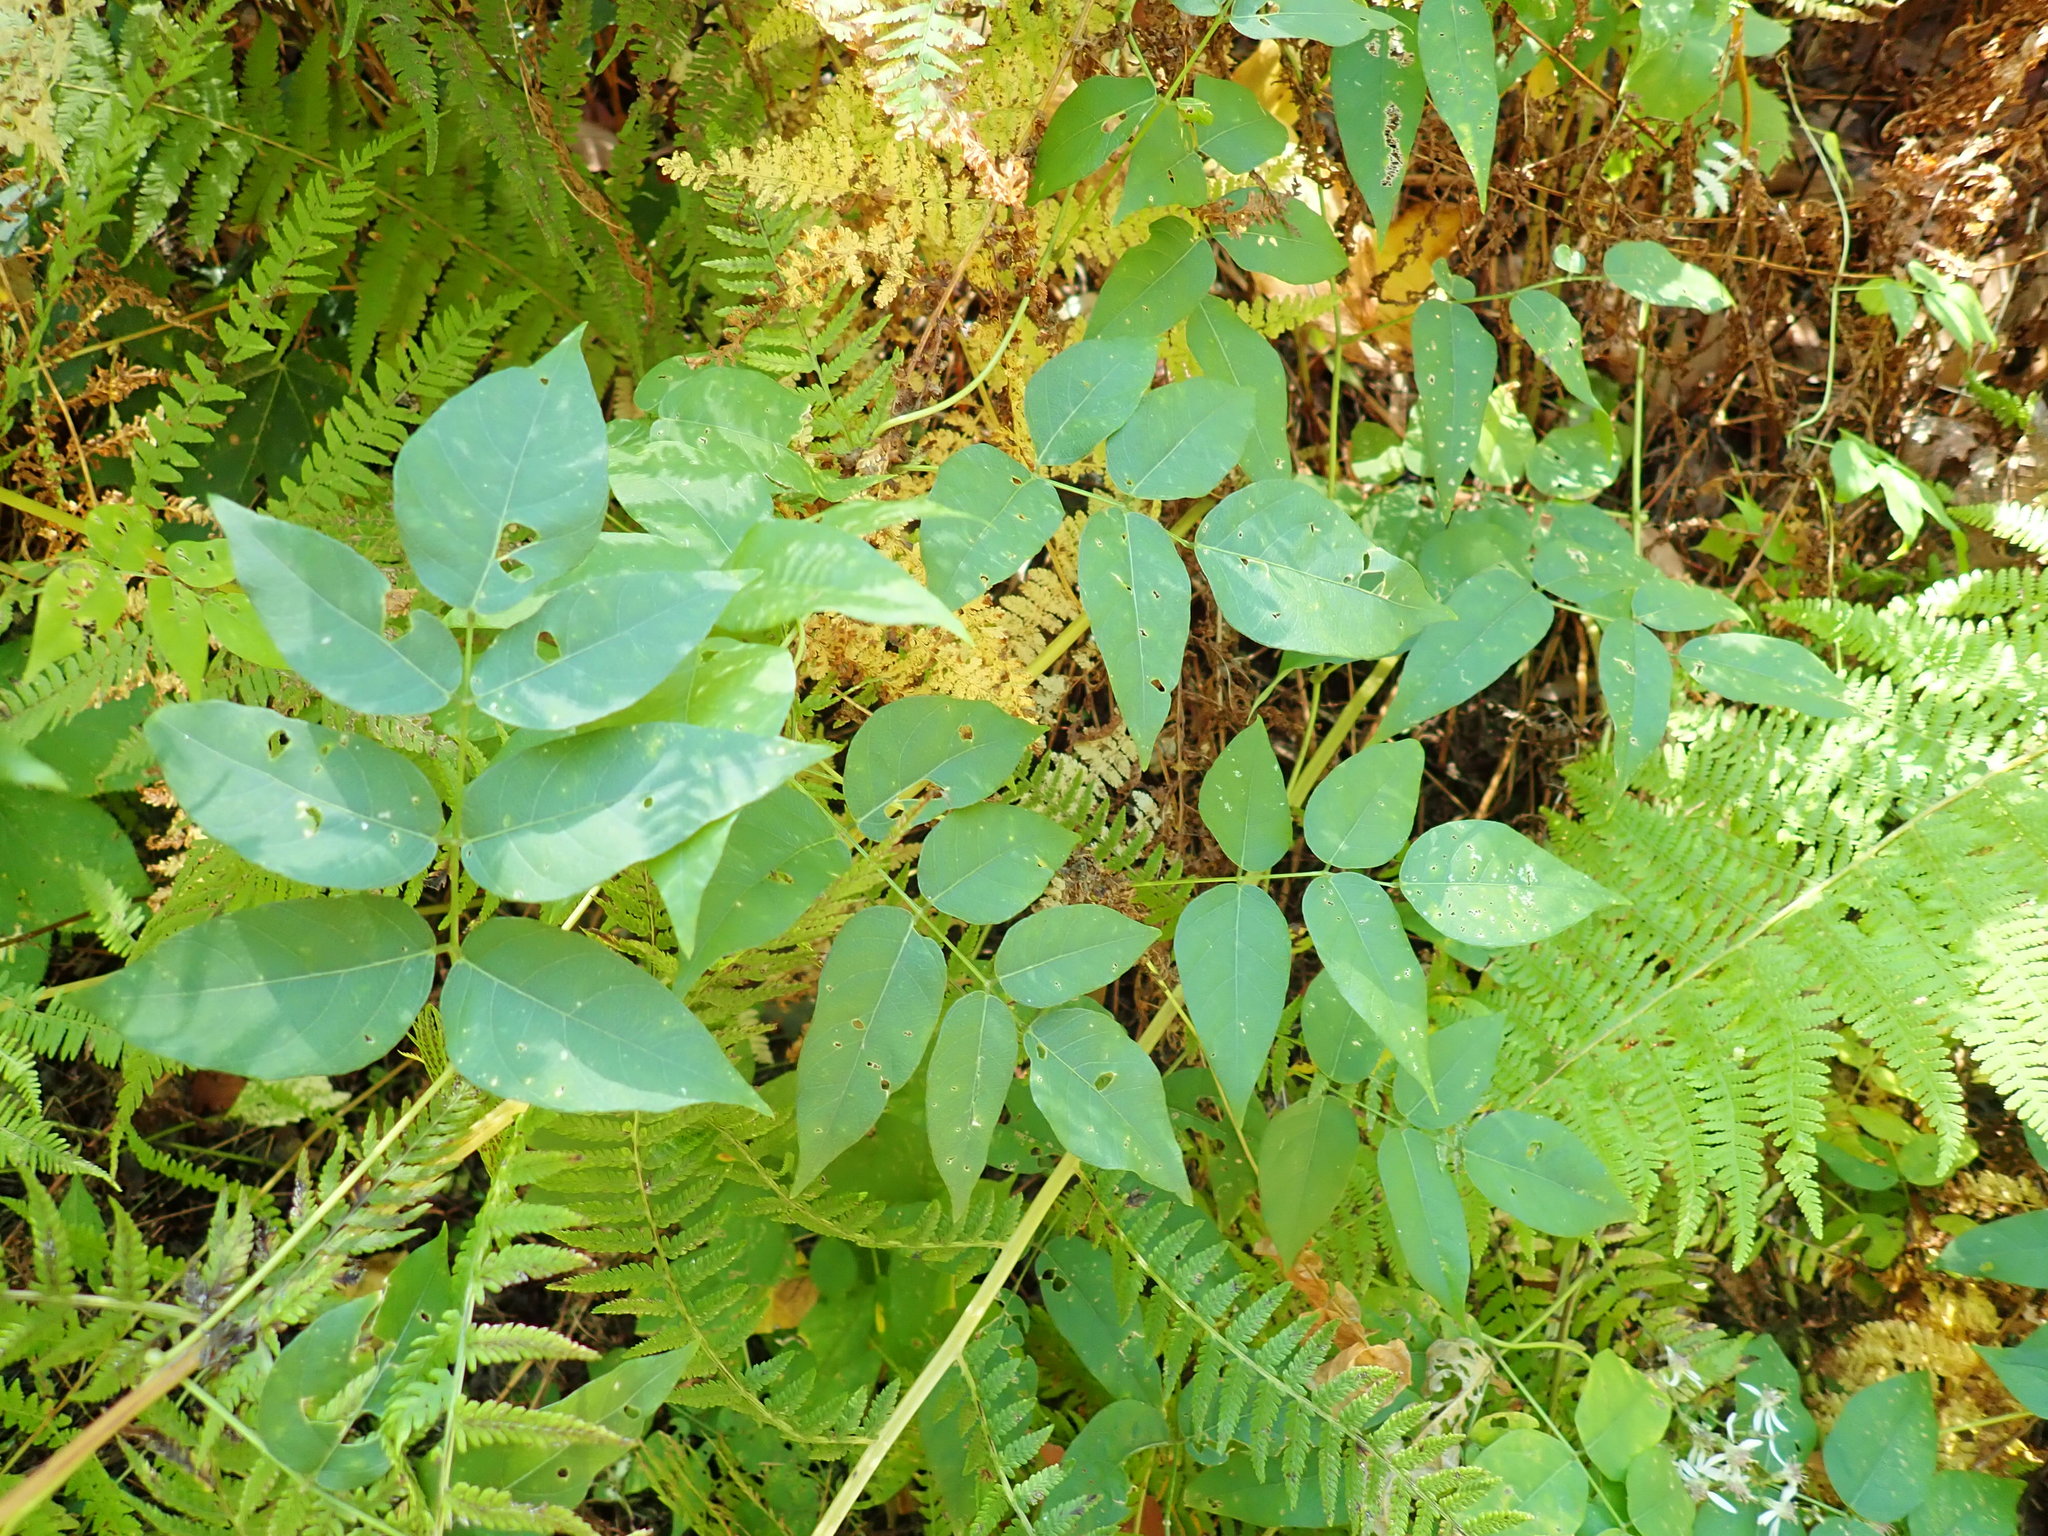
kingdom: Plantae
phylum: Tracheophyta
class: Magnoliopsida
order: Fabales
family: Fabaceae
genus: Apios
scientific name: Apios americana
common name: American potato-bean
